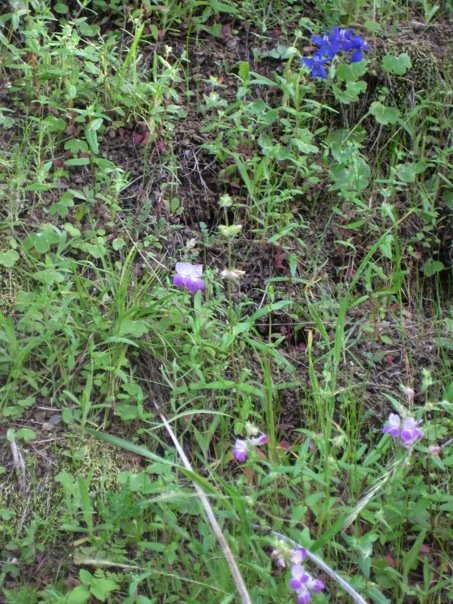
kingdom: Plantae
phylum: Tracheophyta
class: Magnoliopsida
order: Lamiales
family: Plantaginaceae
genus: Collinsia
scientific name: Collinsia heterophylla
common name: Chinese-houses
